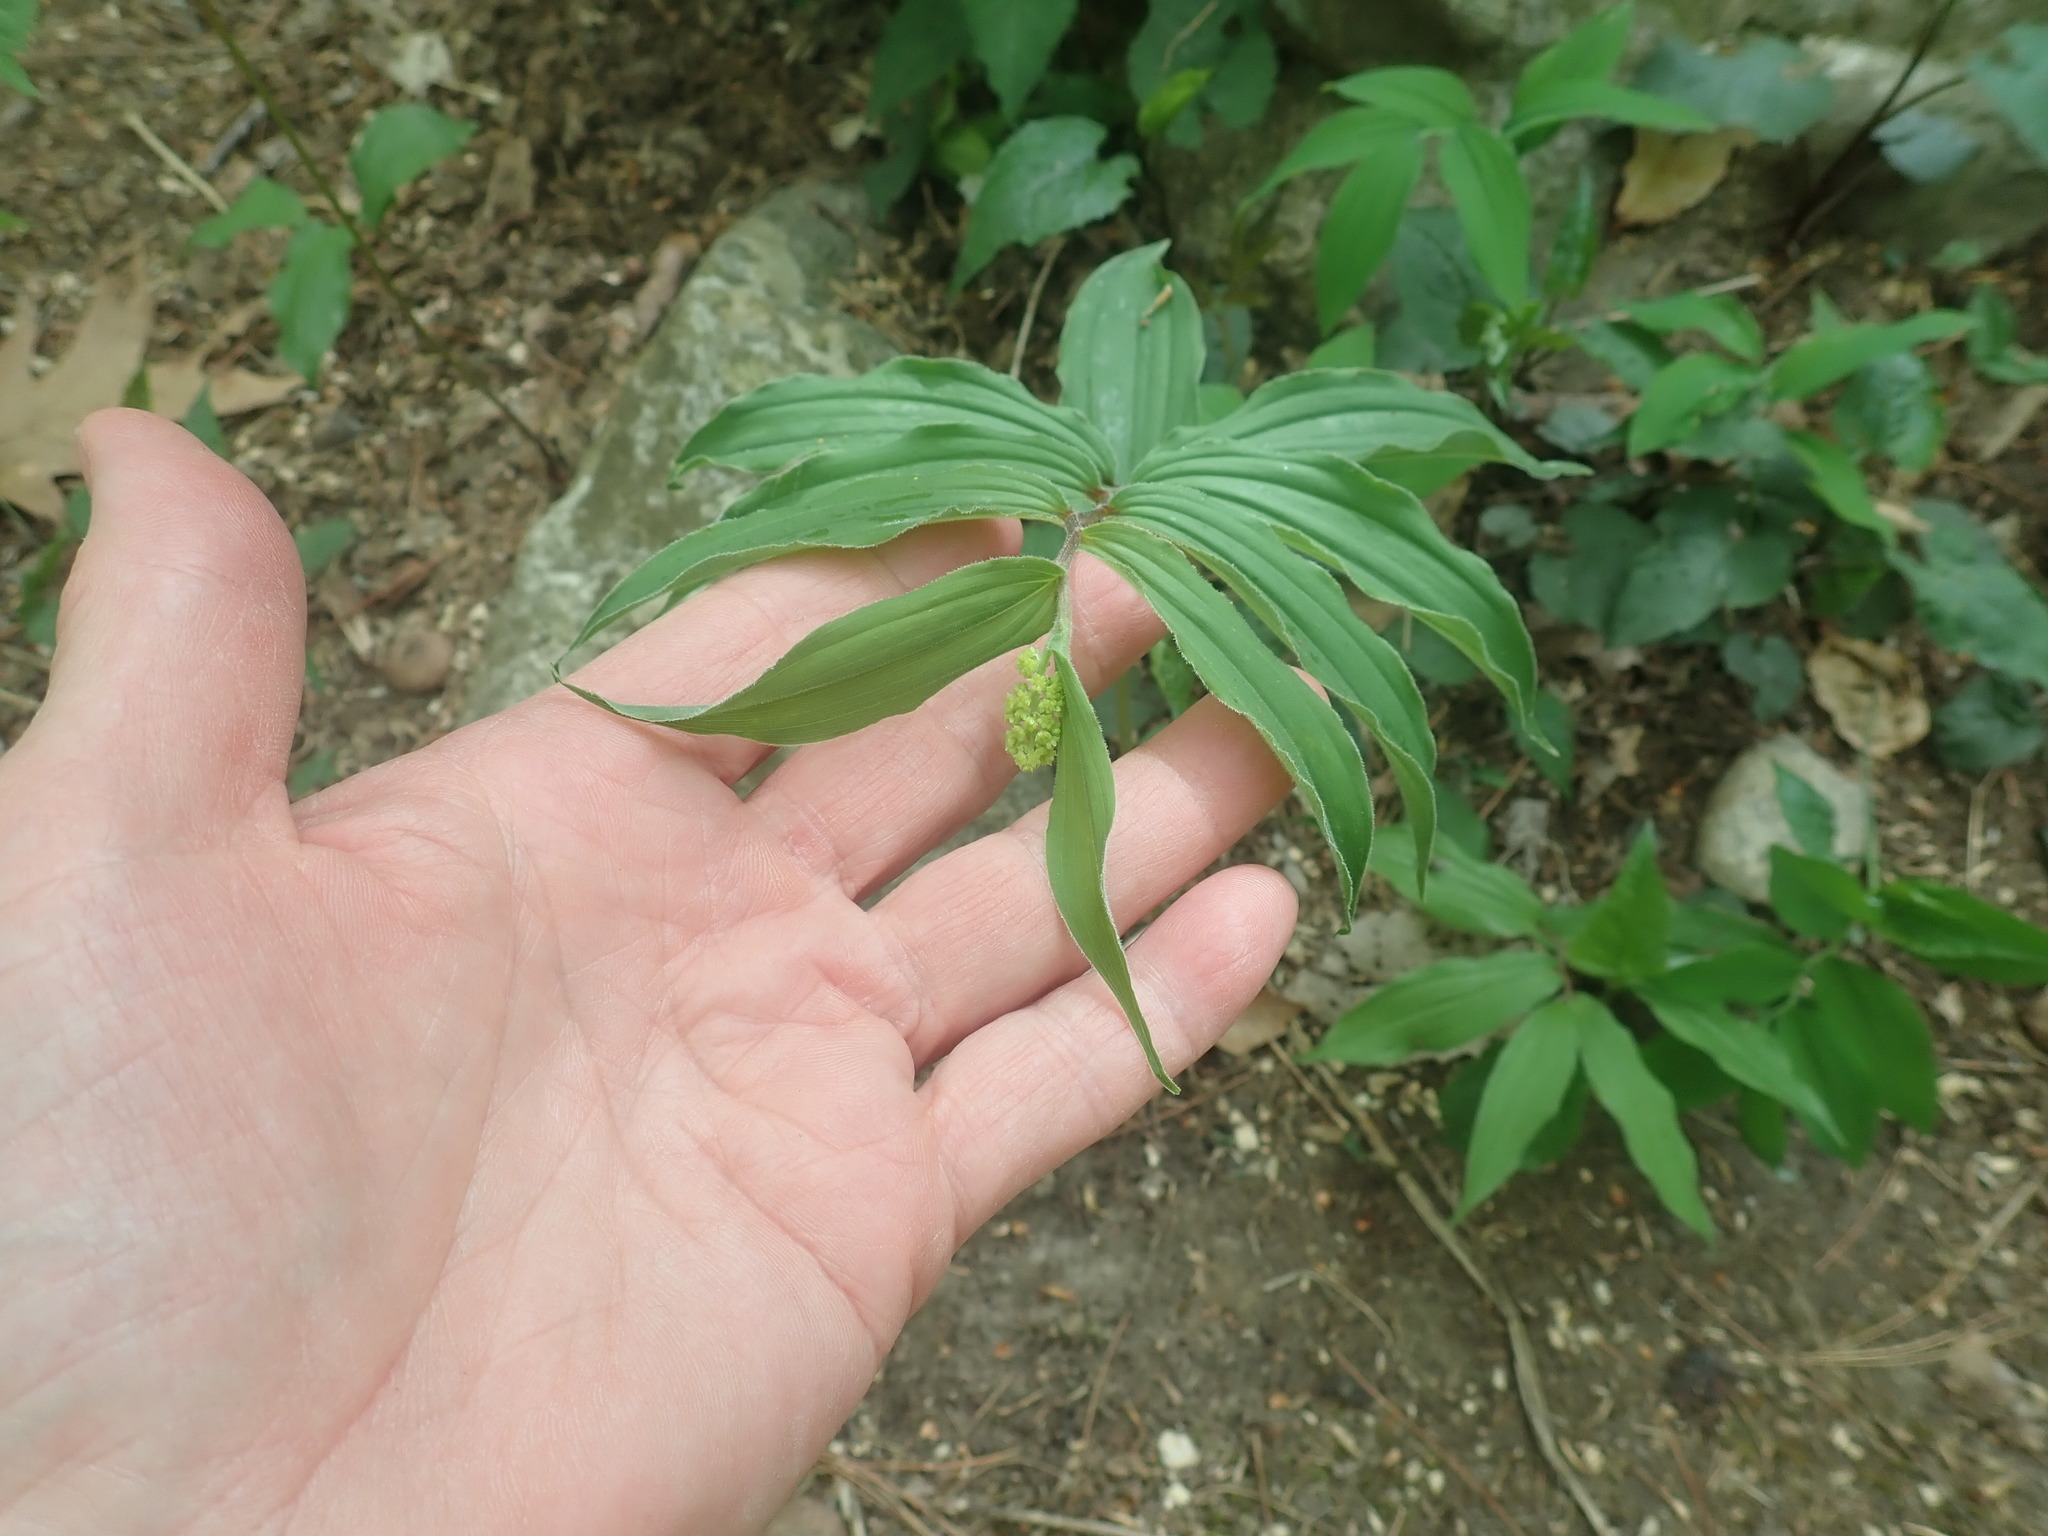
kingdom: Plantae
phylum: Tracheophyta
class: Liliopsida
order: Asparagales
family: Asparagaceae
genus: Maianthemum
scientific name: Maianthemum racemosum
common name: False spikenard
